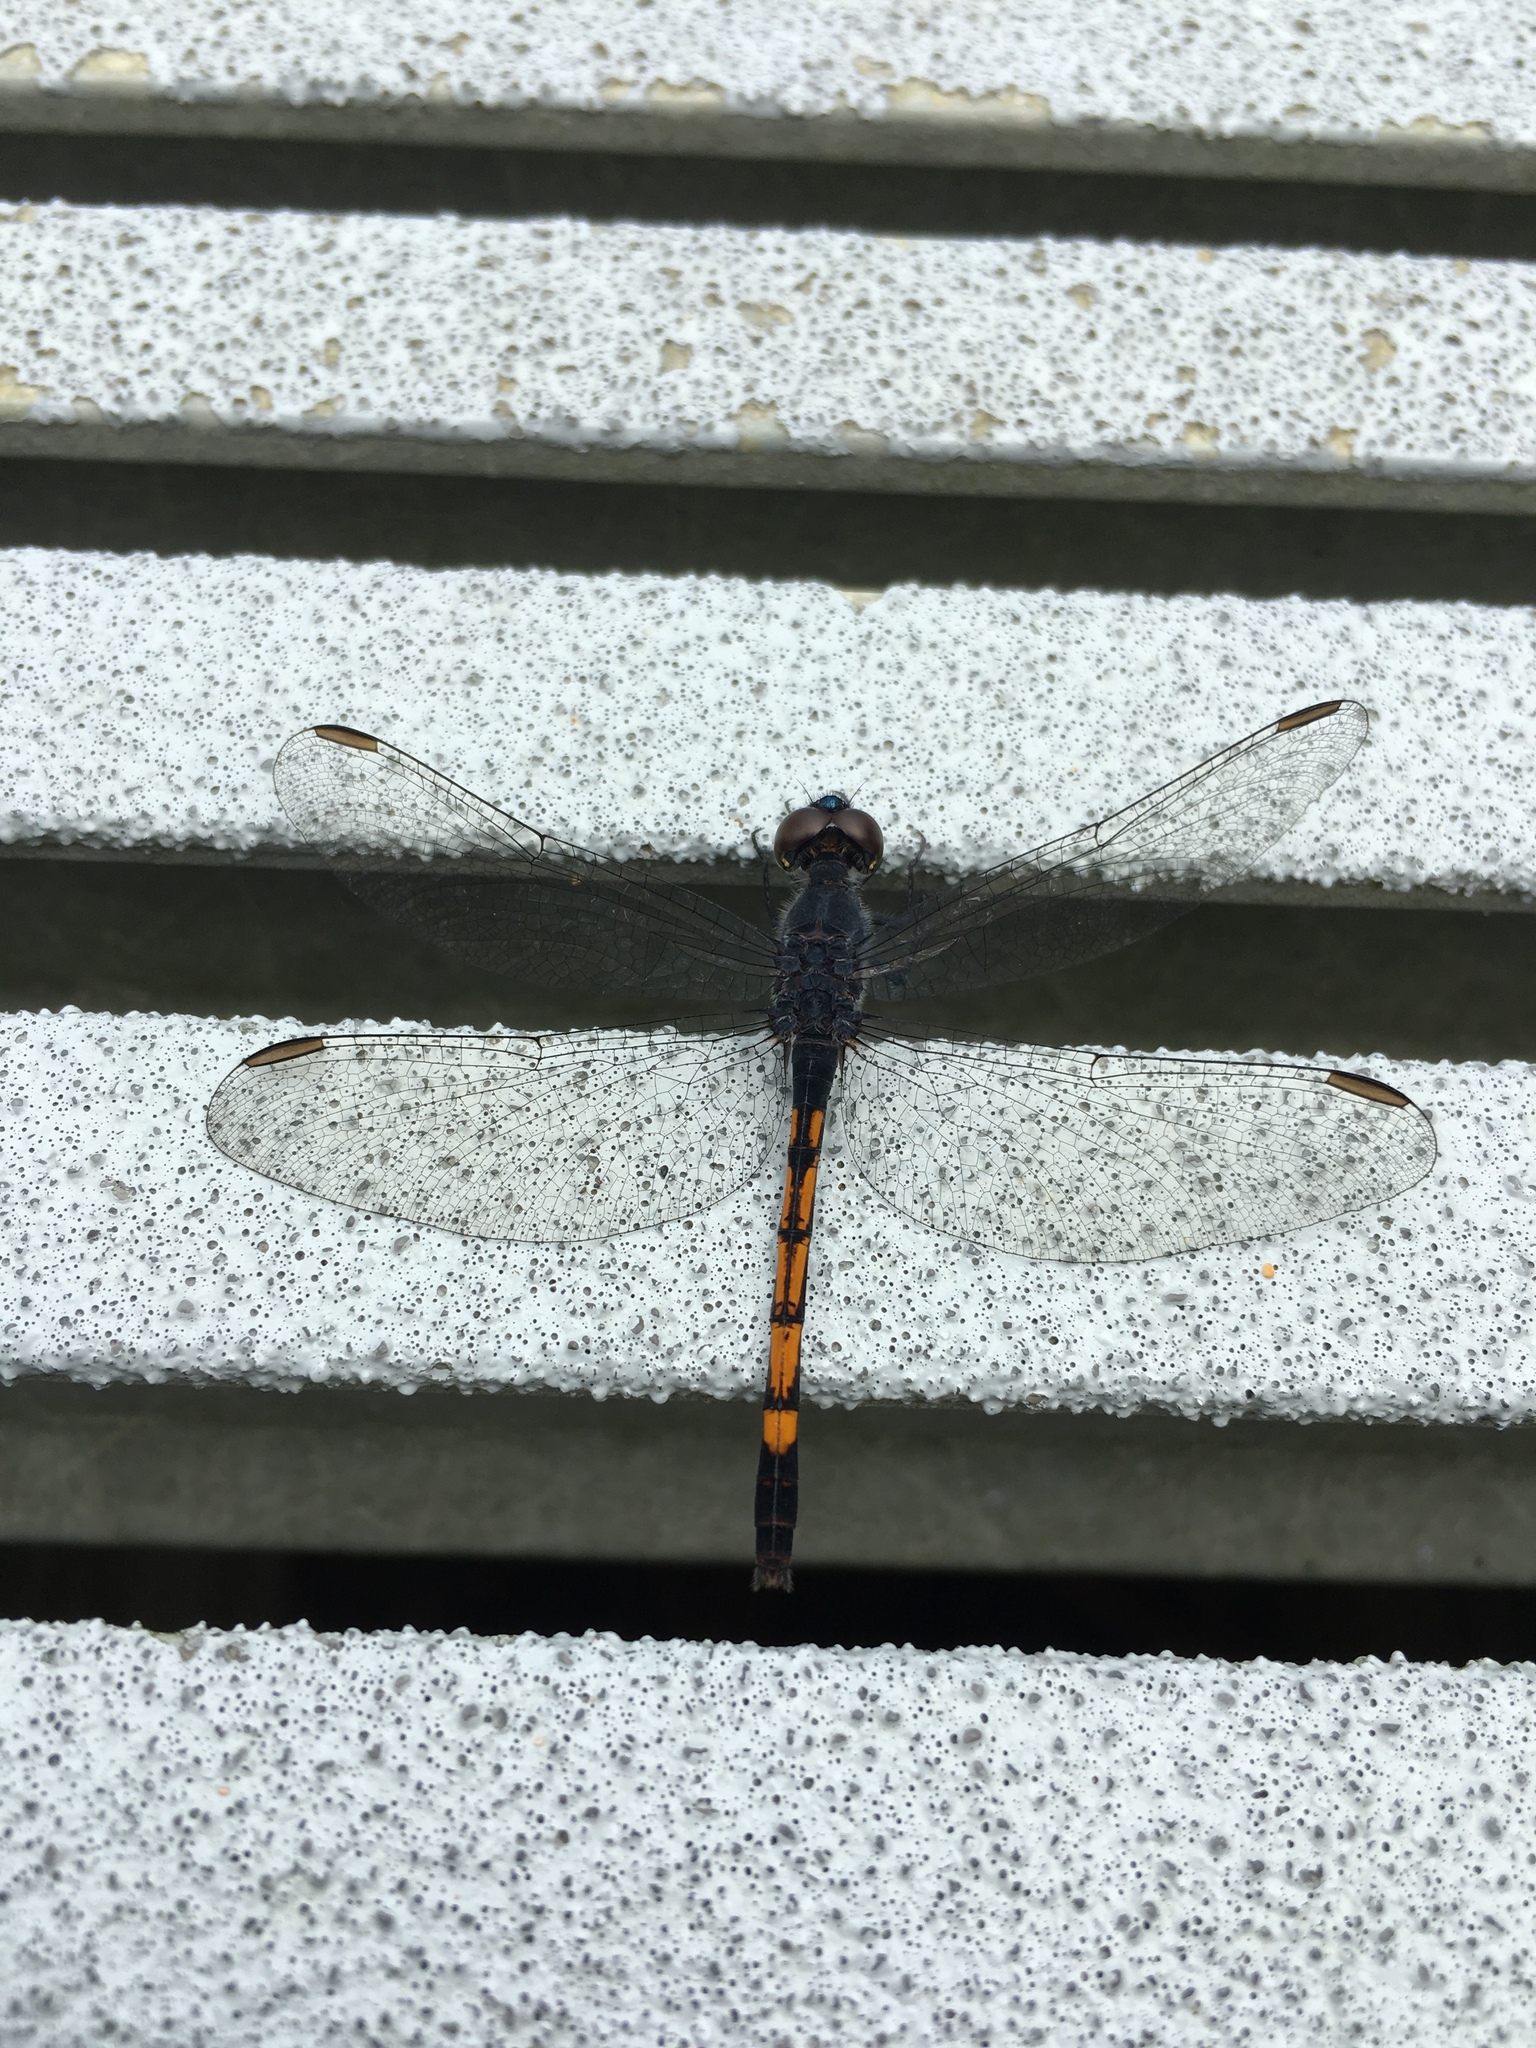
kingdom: Animalia
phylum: Arthropoda
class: Insecta
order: Odonata
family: Libellulidae
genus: Erythrodiplax
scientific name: Erythrodiplax berenice
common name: Seaside dragonlet
